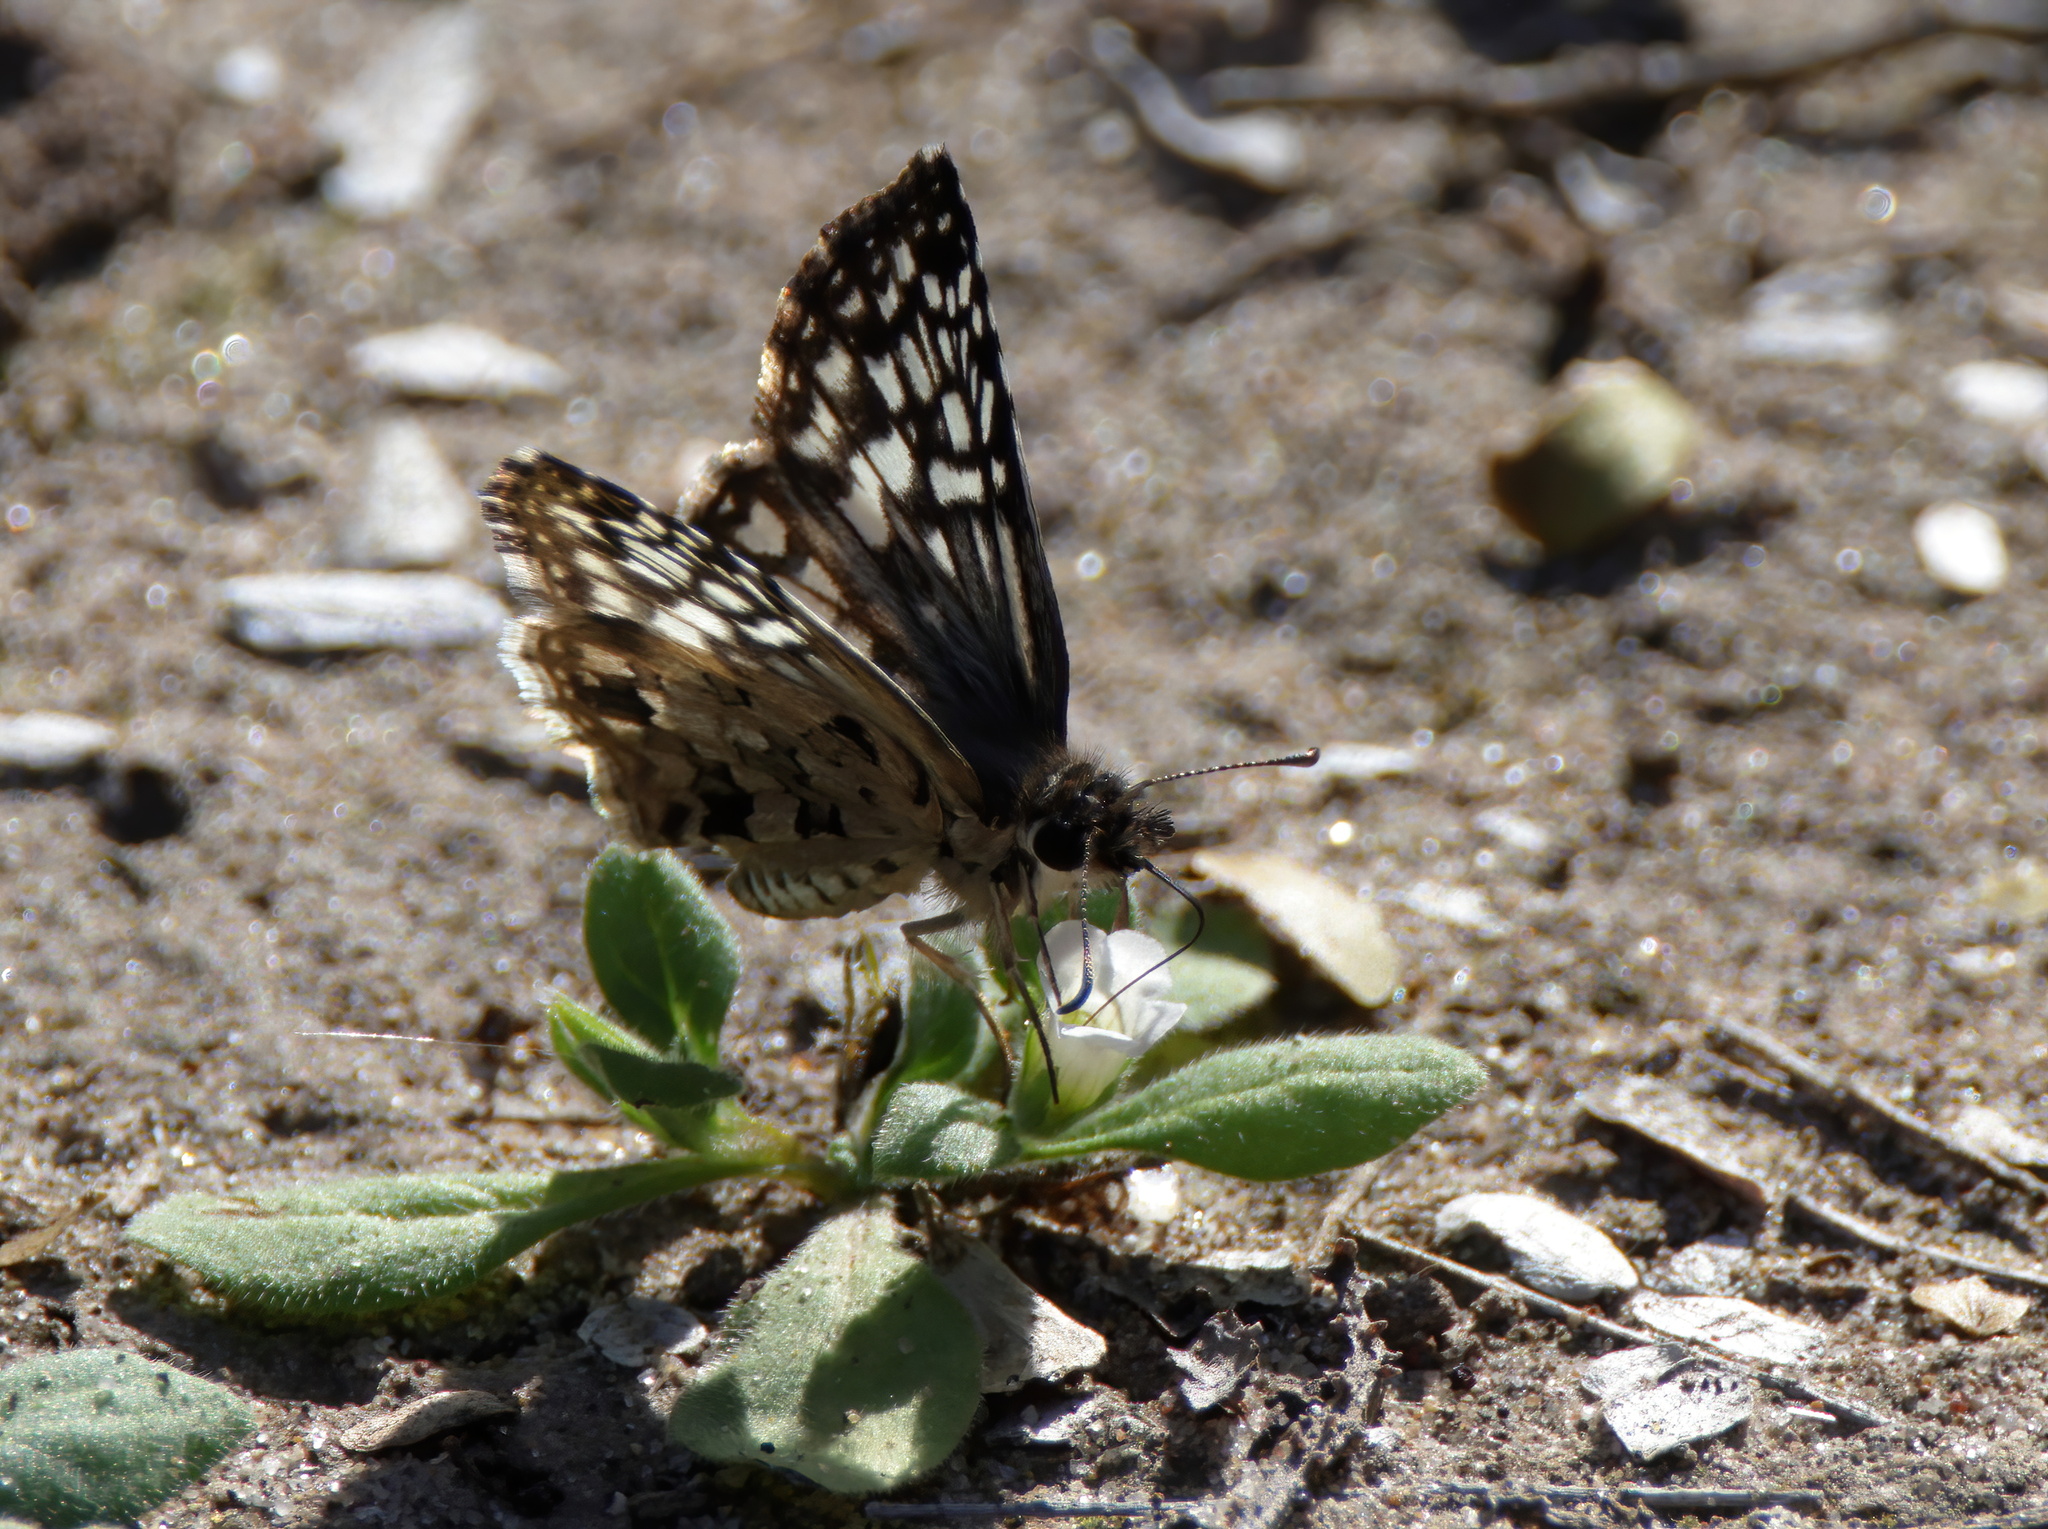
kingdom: Animalia
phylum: Arthropoda
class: Insecta
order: Lepidoptera
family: Hesperiidae
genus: Pyrgus
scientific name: Pyrgus oileus
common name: Tropical checkered-skipper
